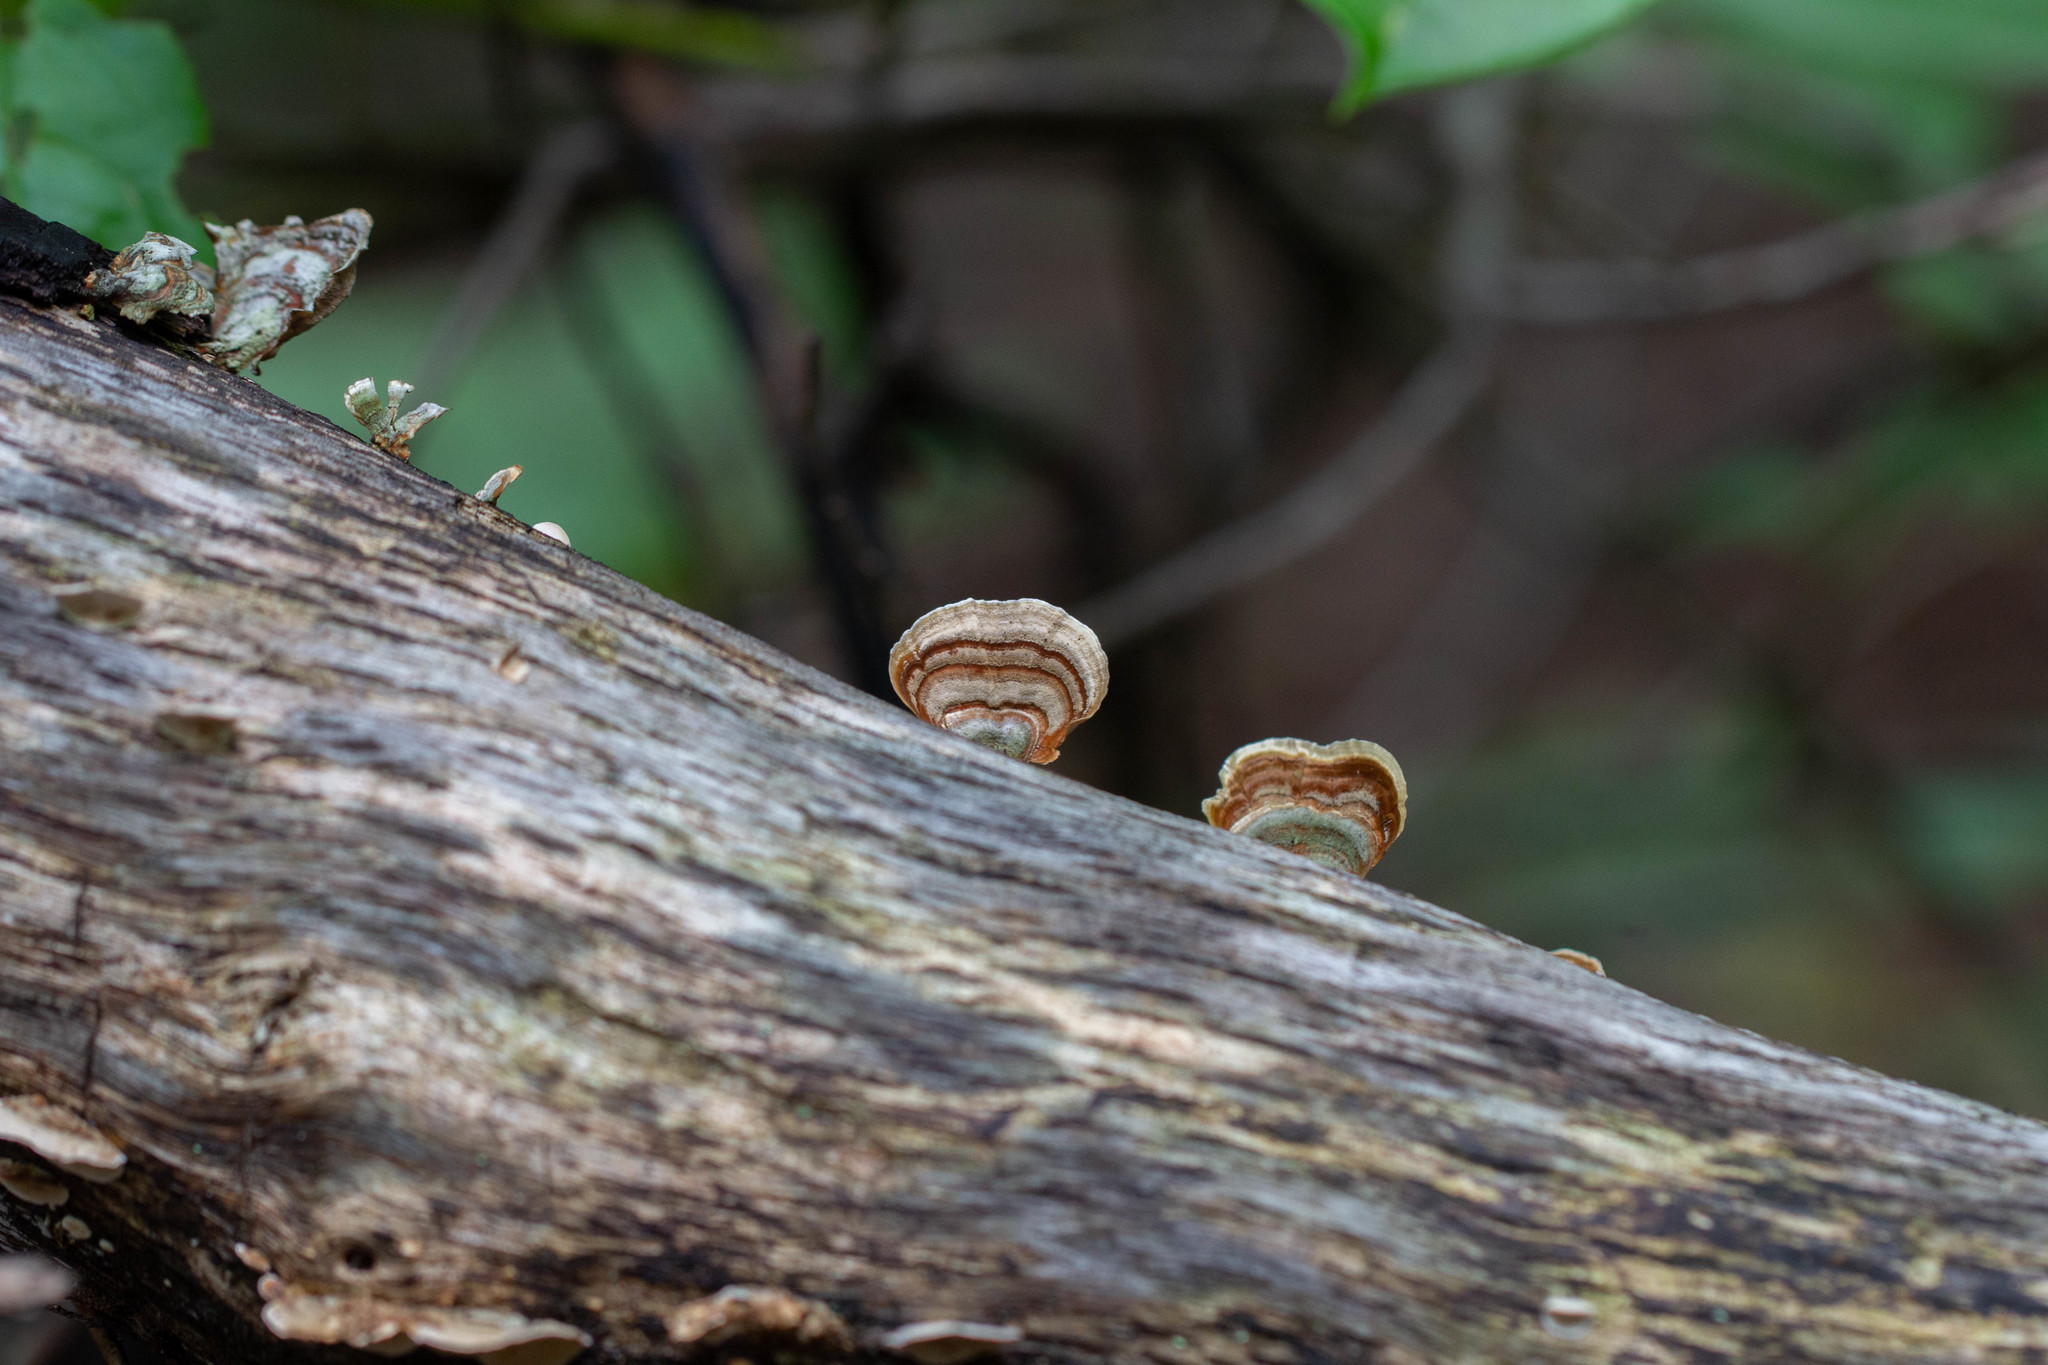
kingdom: Fungi
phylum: Basidiomycota
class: Agaricomycetes
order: Russulales
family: Stereaceae
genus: Stereum
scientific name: Stereum ostrea
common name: False turkeytail
